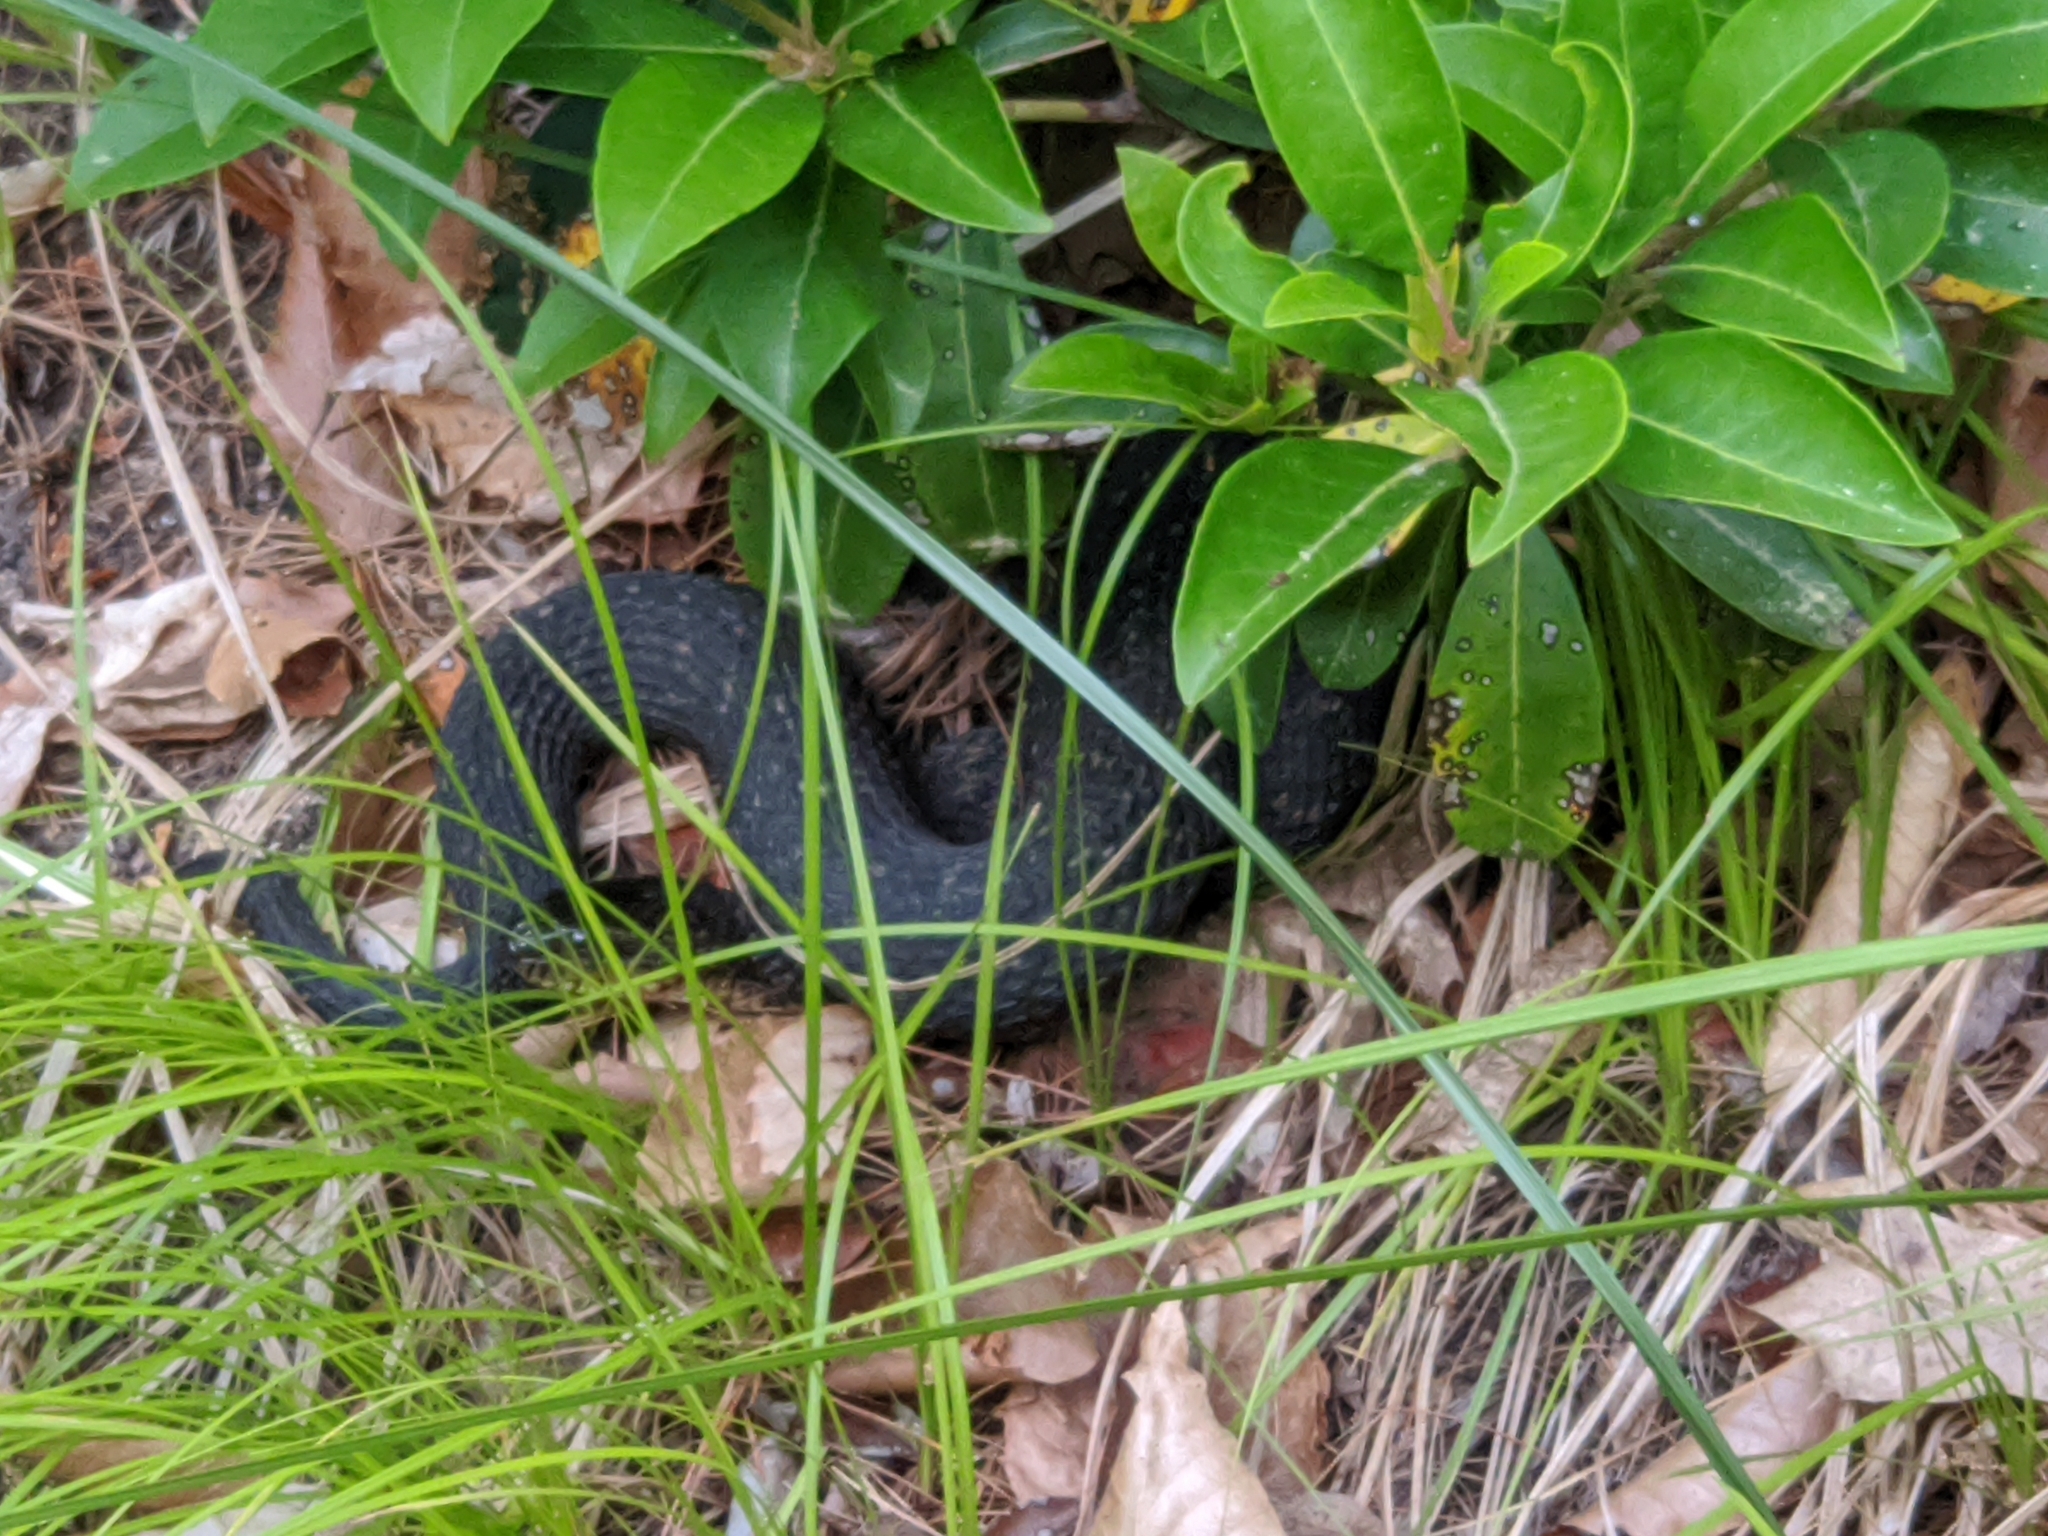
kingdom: Animalia
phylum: Chordata
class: Squamata
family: Colubridae
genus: Nerodia
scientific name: Nerodia sipedon
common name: Northern water snake
